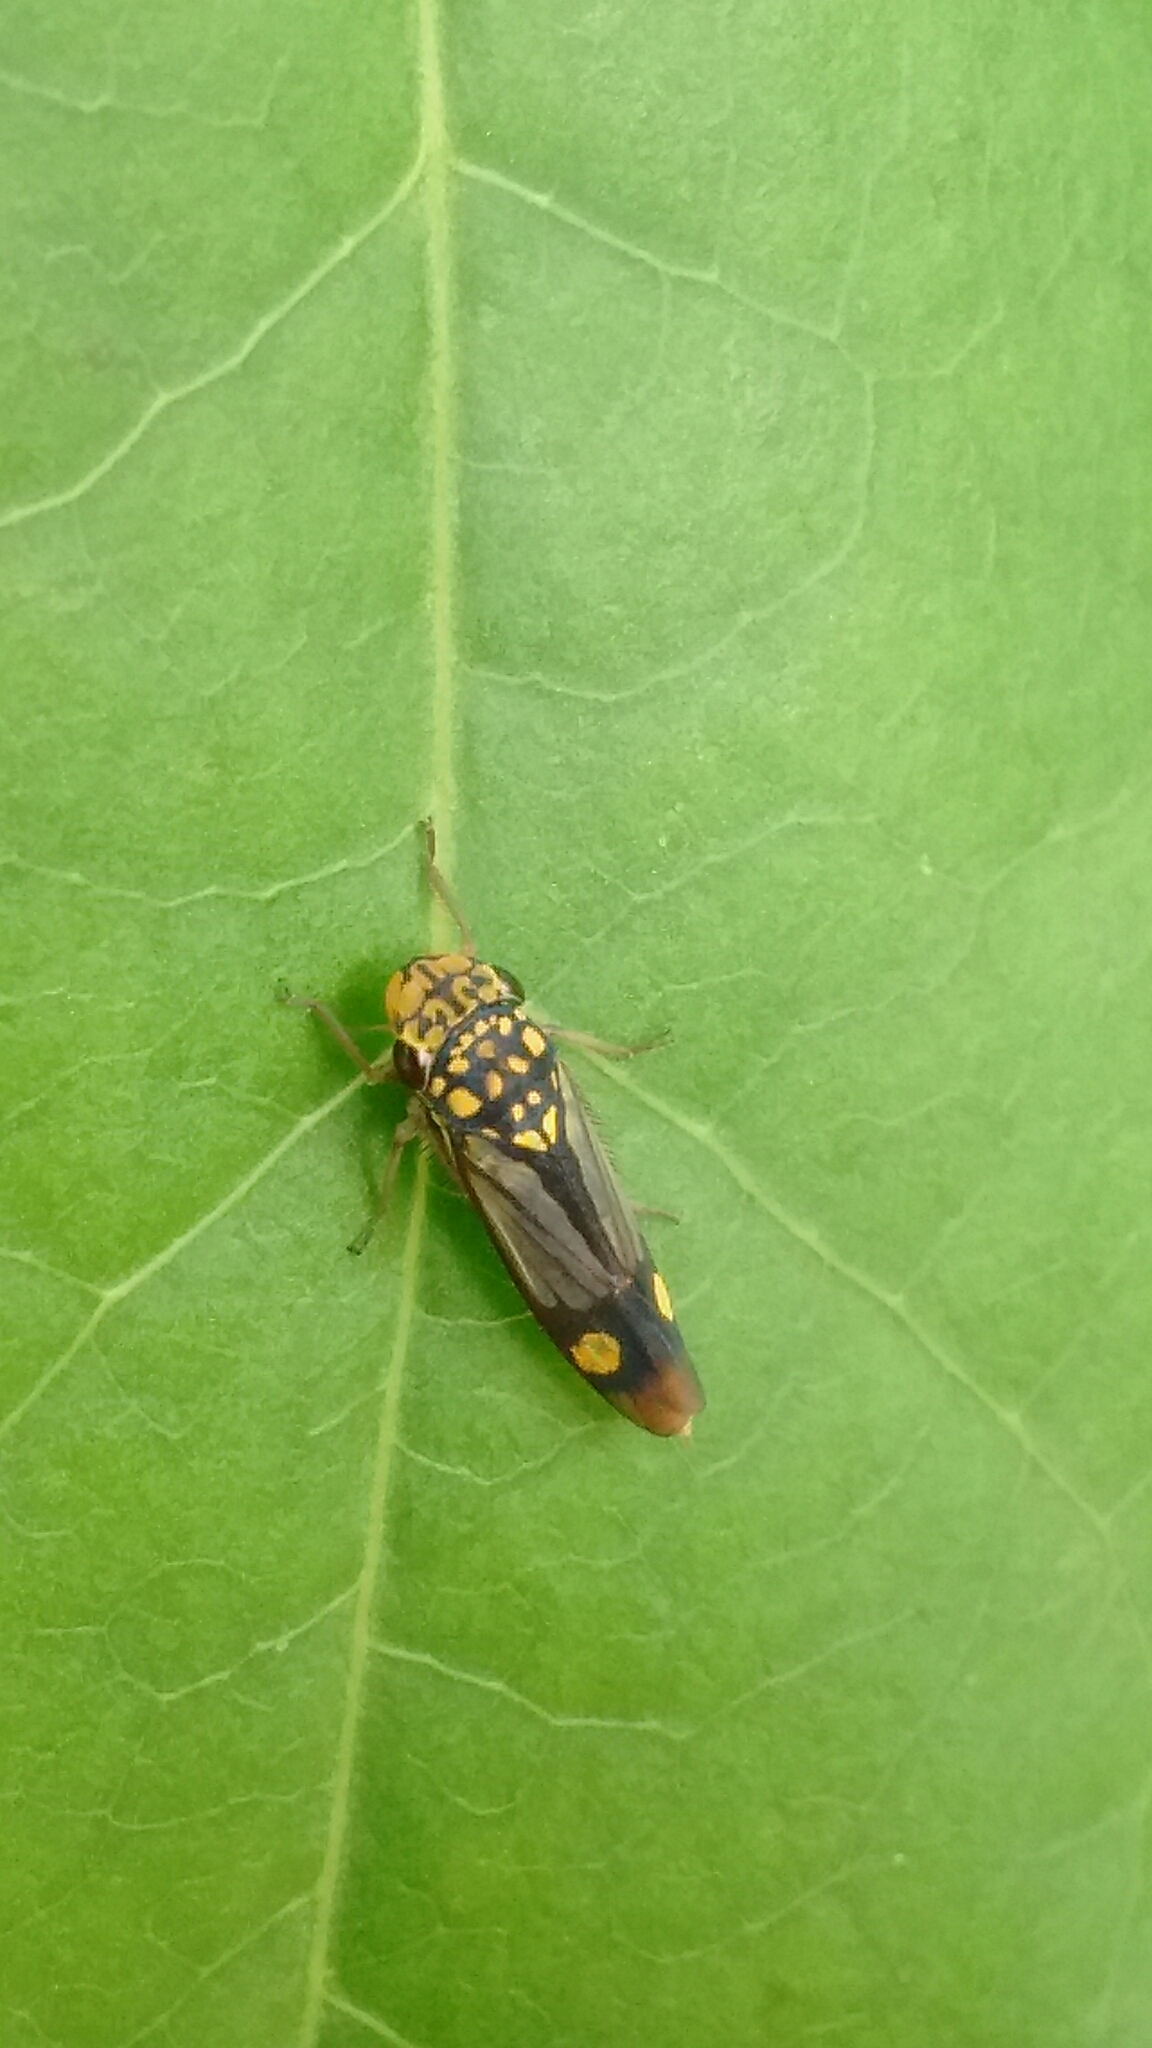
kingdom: Animalia
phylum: Arthropoda
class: Insecta
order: Hemiptera
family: Cicadellidae
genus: Dilobopterus
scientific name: Dilobopterus dispar
